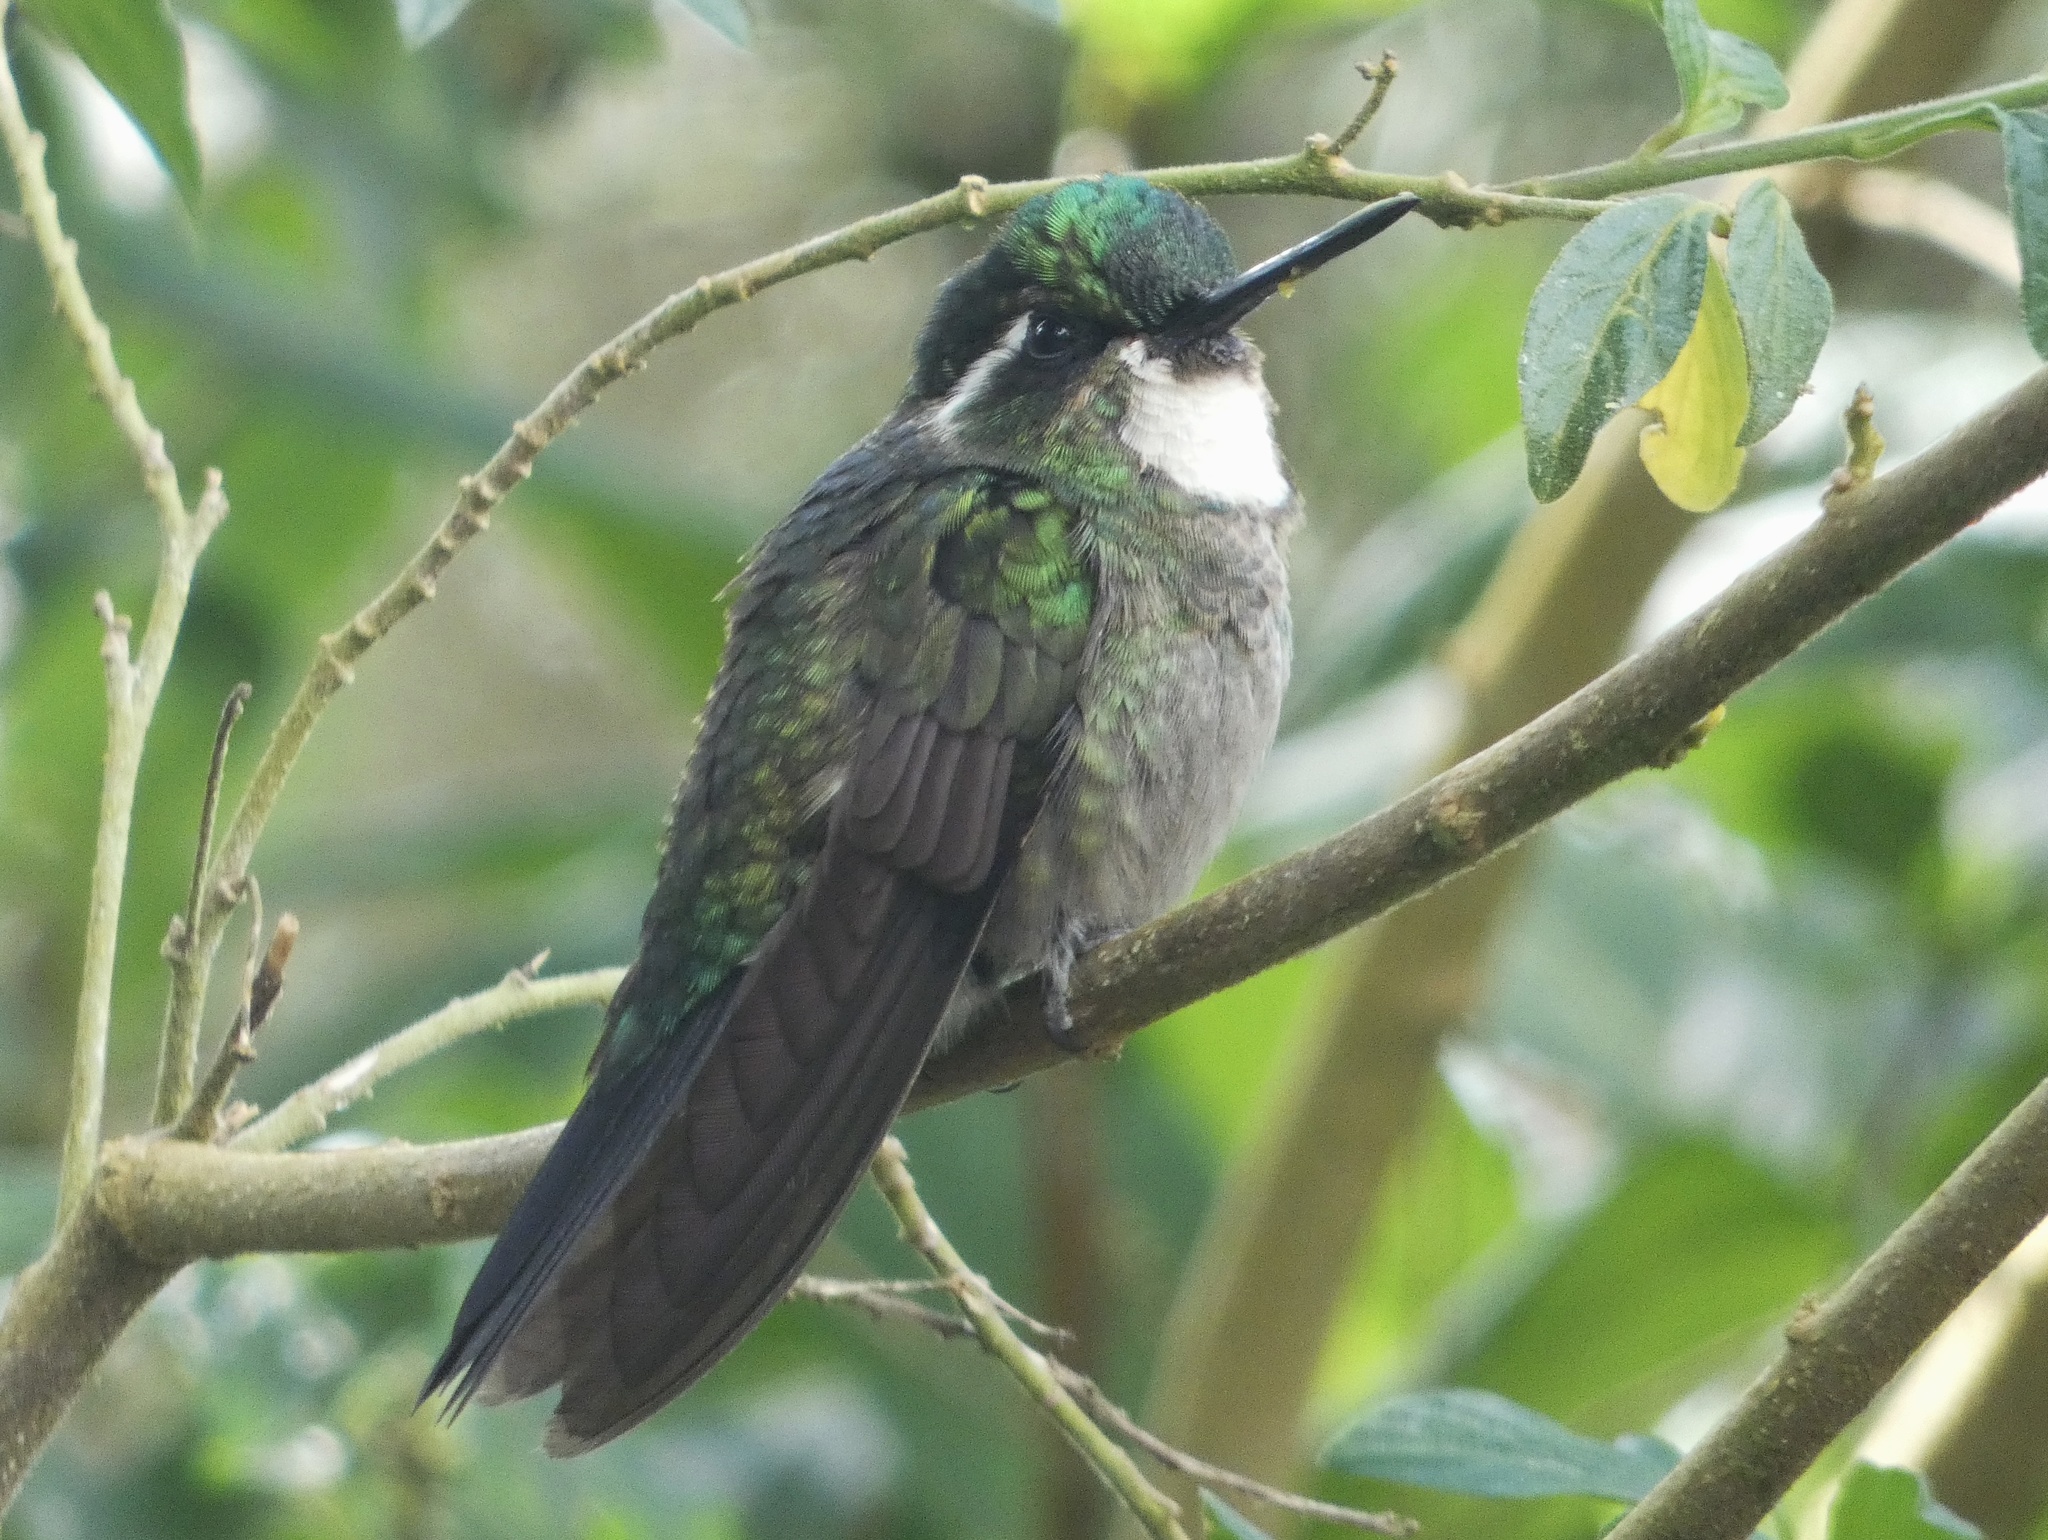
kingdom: Animalia
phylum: Chordata
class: Aves
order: Apodiformes
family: Trochilidae
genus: Lampornis
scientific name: Lampornis castaneoventris
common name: White-throated mountain-gem
